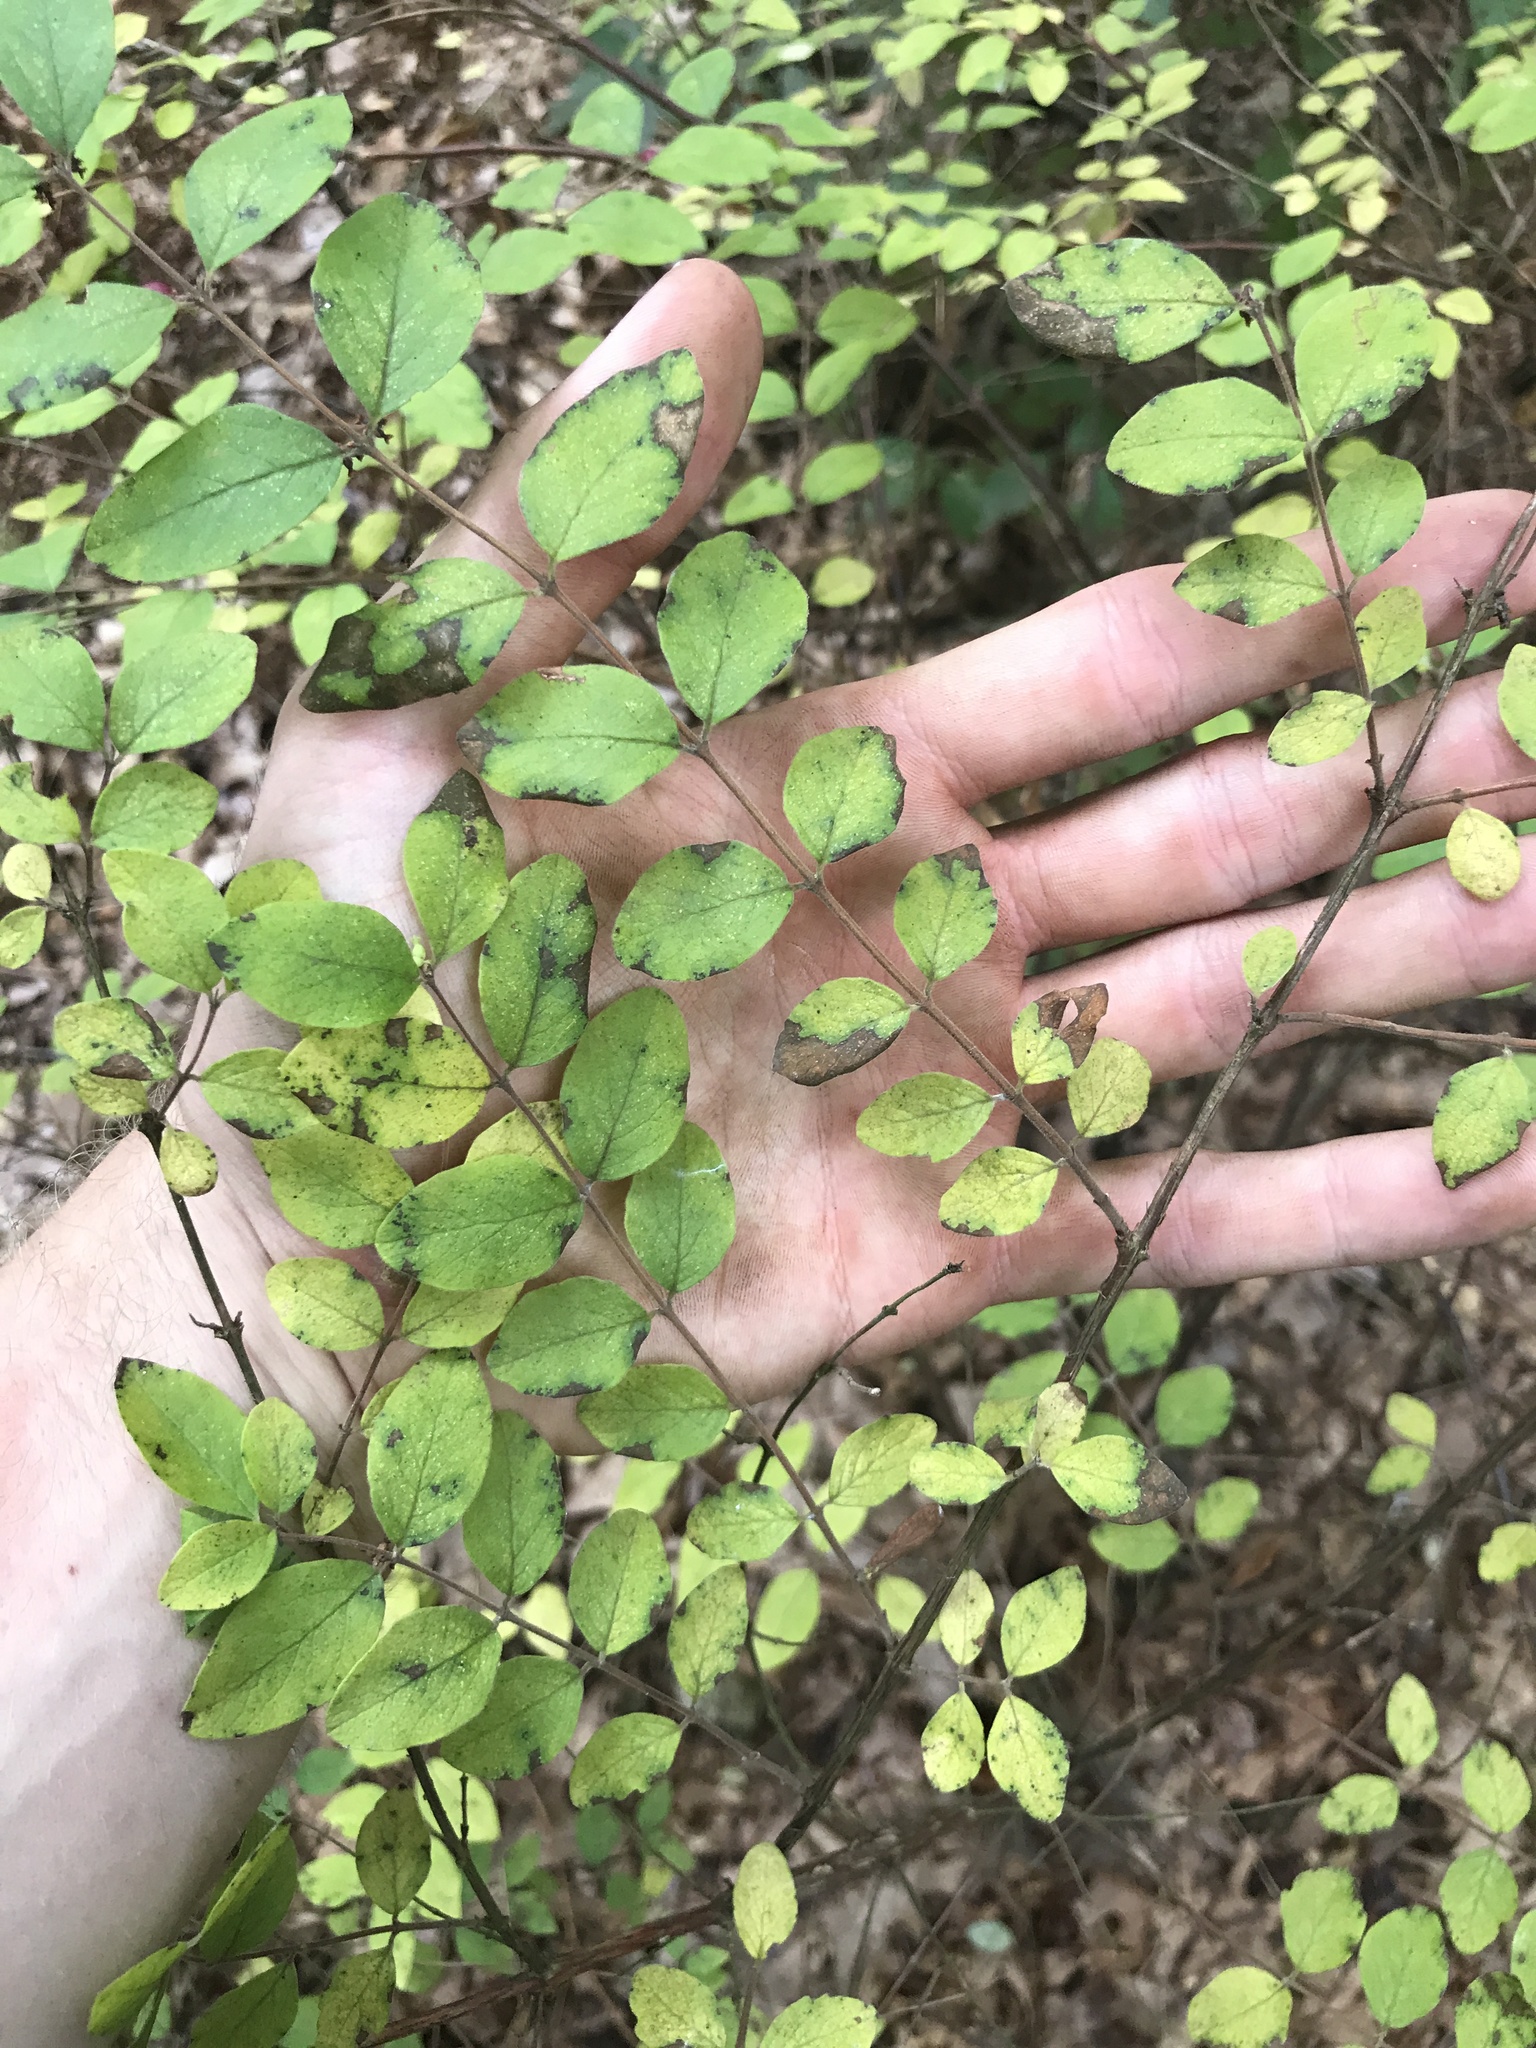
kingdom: Plantae
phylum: Tracheophyta
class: Magnoliopsida
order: Dipsacales
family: Caprifoliaceae
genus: Symphoricarpos
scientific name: Symphoricarpos orbiculatus
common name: Coralberry
